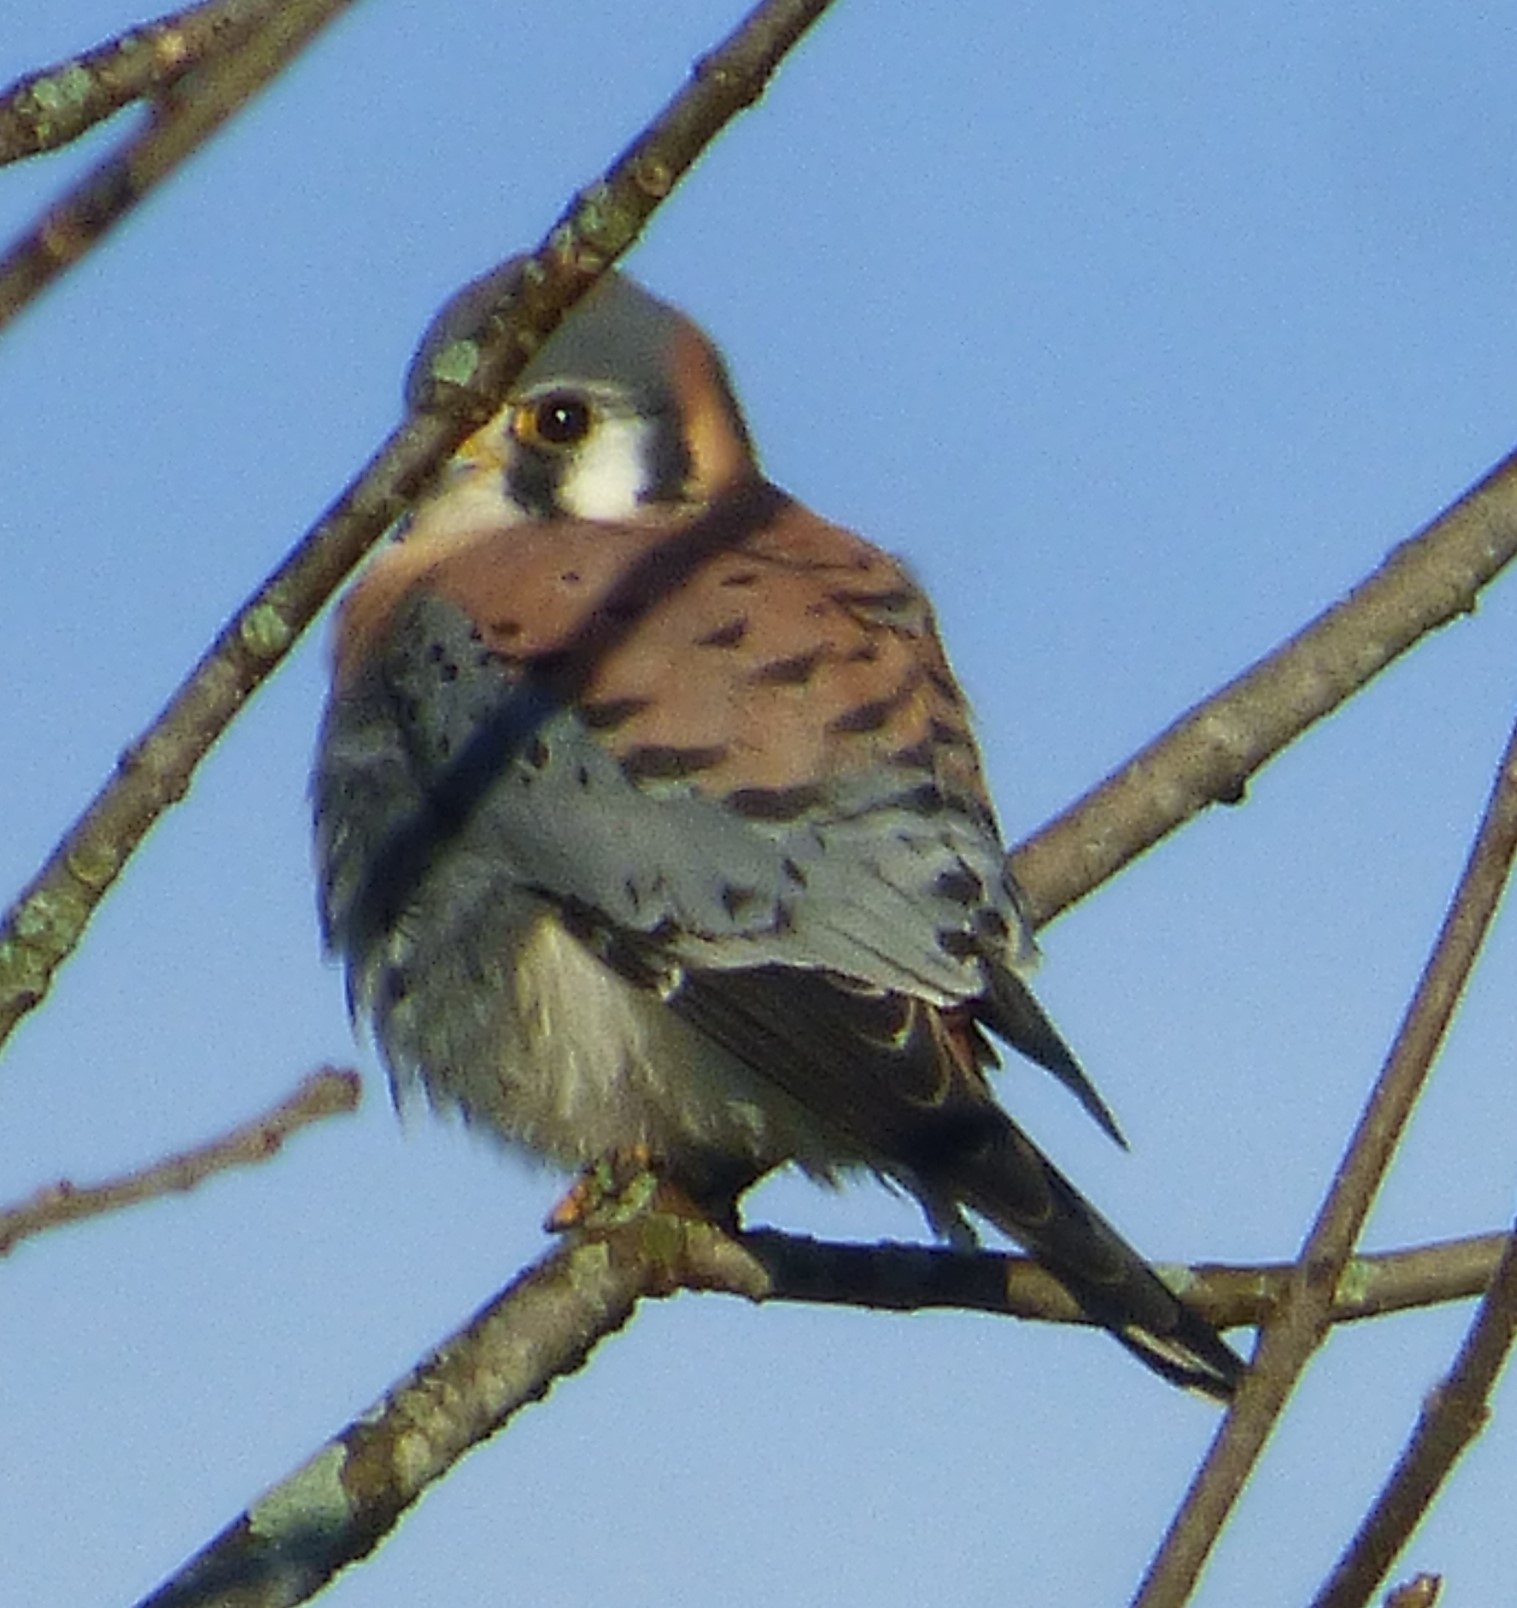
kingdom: Animalia
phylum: Chordata
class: Aves
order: Falconiformes
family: Falconidae
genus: Falco
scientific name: Falco sparverius
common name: American kestrel
